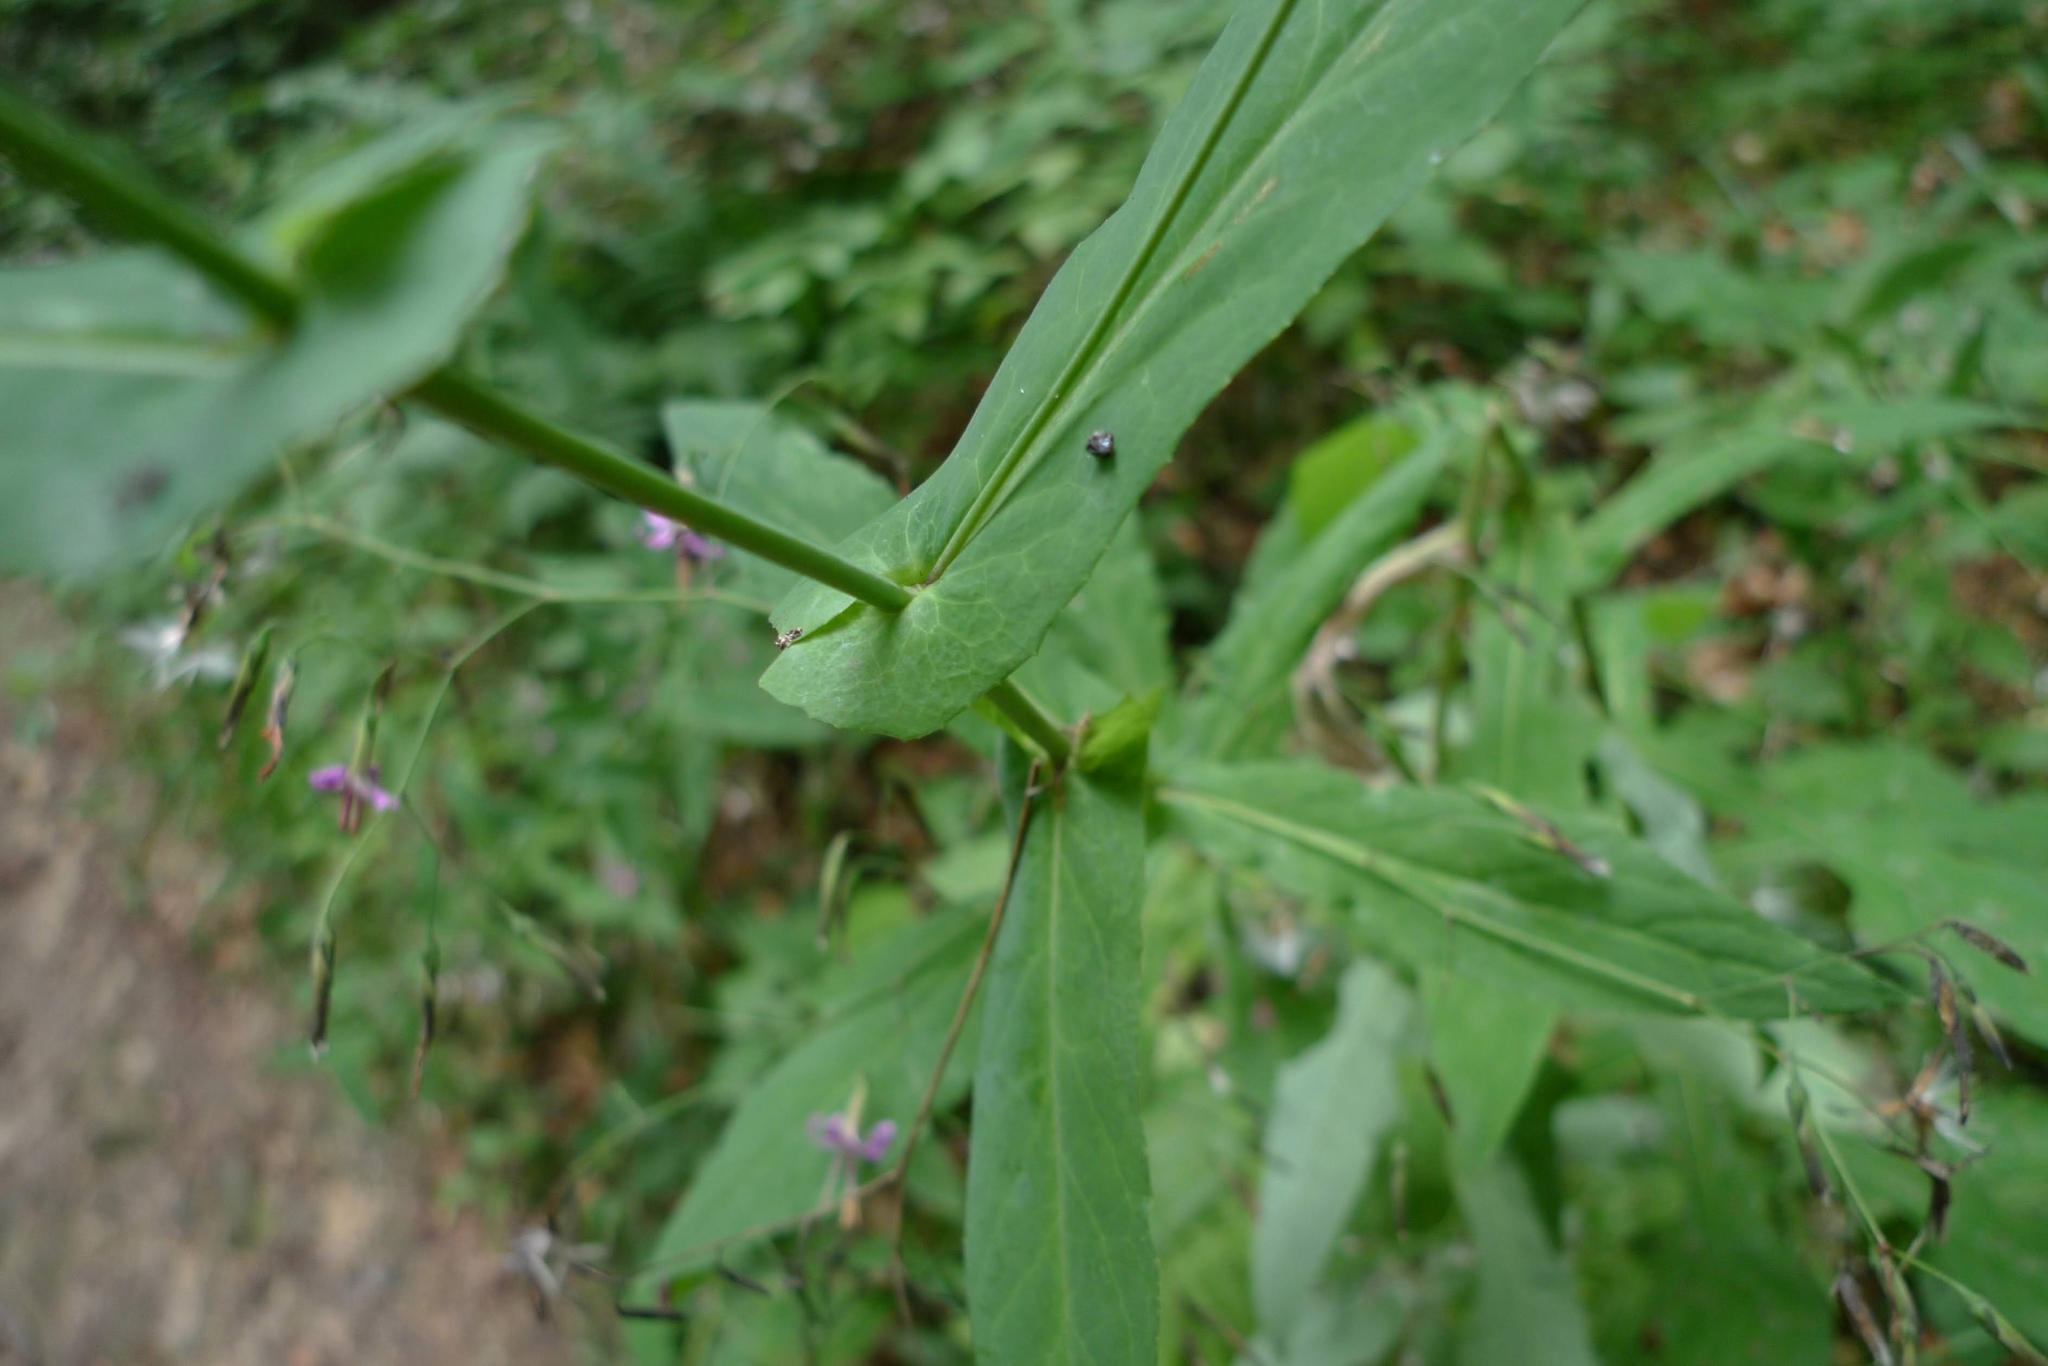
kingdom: Plantae
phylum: Tracheophyta
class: Magnoliopsida
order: Asterales
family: Asteraceae
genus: Prenanthes
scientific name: Prenanthes purpurea
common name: Purple lettuce
